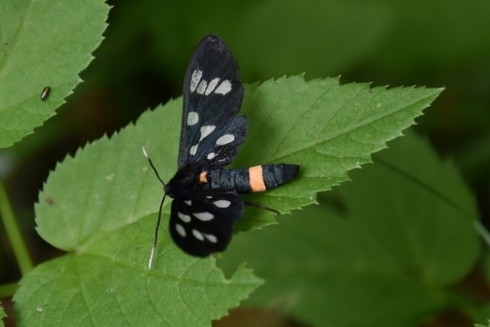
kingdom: Animalia
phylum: Arthropoda
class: Insecta
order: Lepidoptera
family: Erebidae
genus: Amata
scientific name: Amata phegea
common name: Nine-spotted
